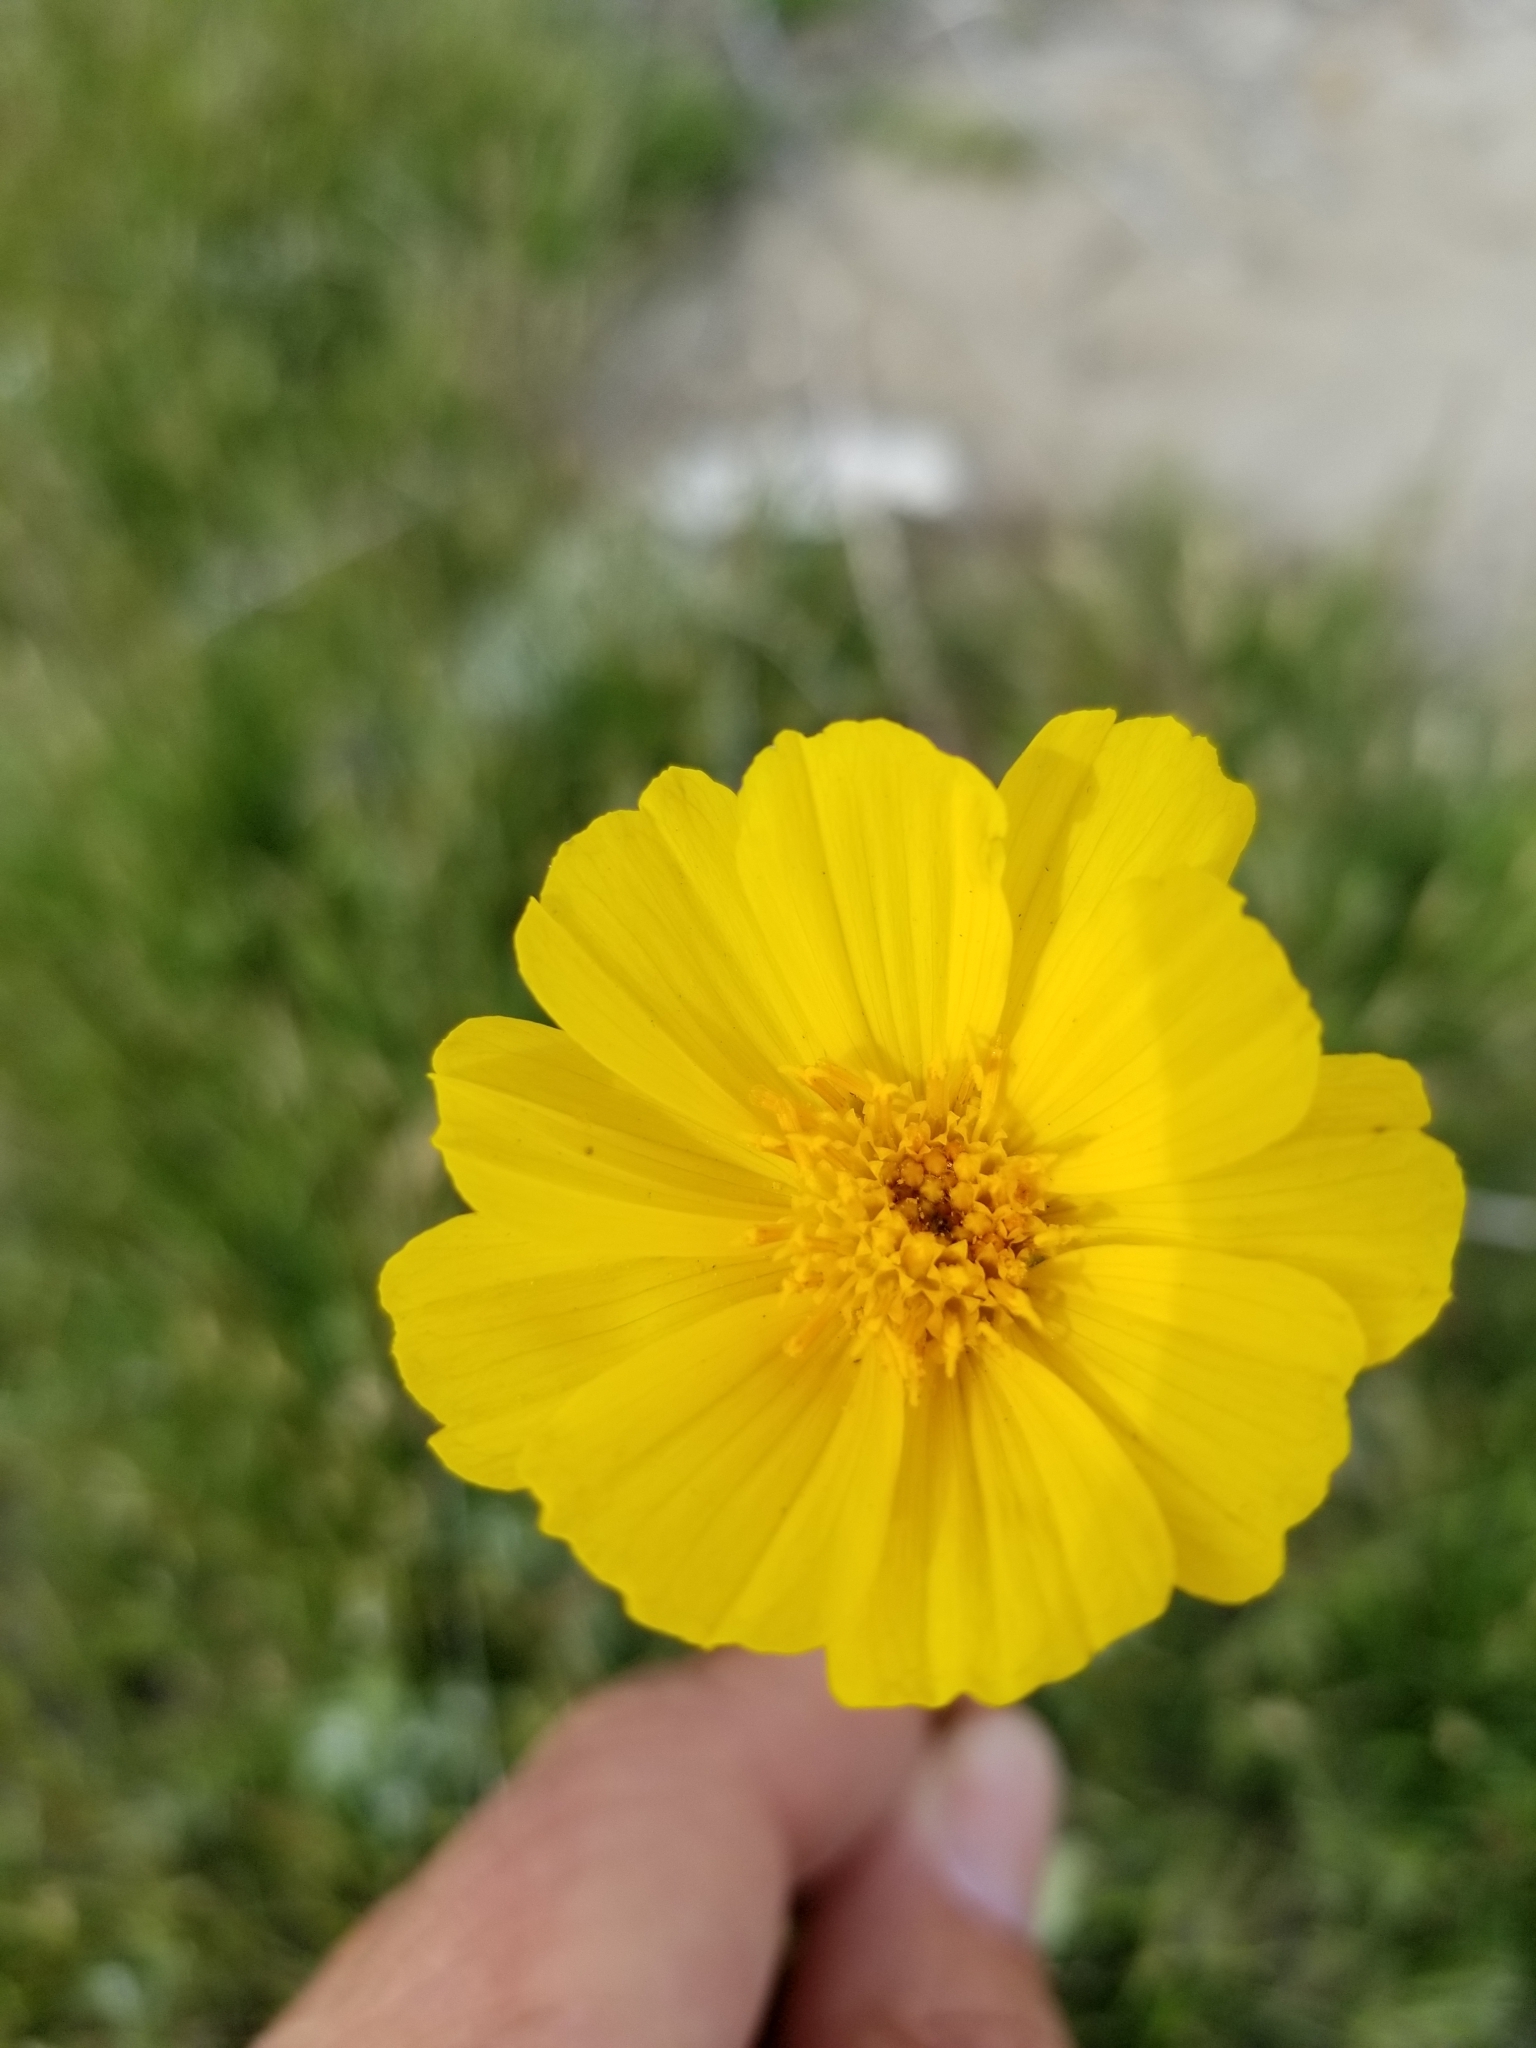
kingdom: Plantae
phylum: Tracheophyta
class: Magnoliopsida
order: Asterales
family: Asteraceae
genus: Geraea
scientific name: Geraea canescens
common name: Desert-gold
